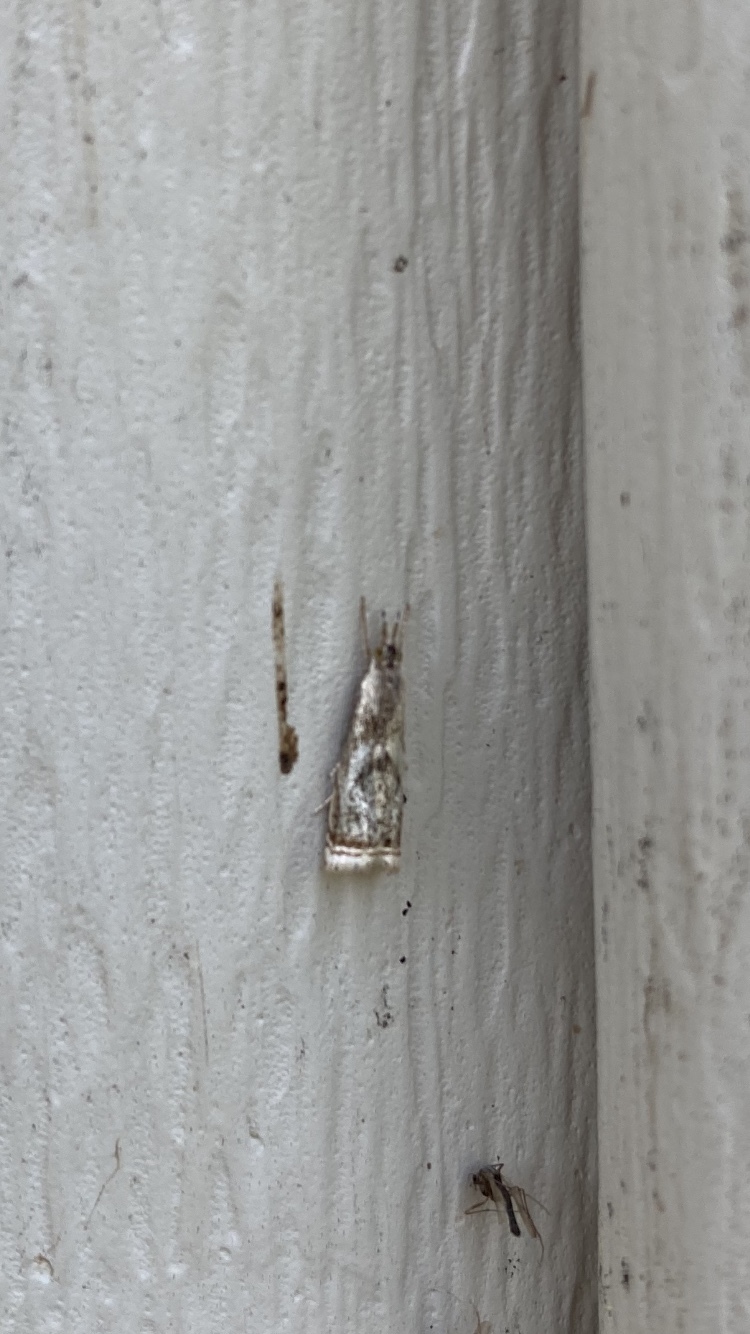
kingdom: Animalia
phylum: Arthropoda
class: Insecta
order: Lepidoptera
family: Crambidae
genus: Microcrambus
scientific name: Microcrambus elegans
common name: Elegant grass-veneer
